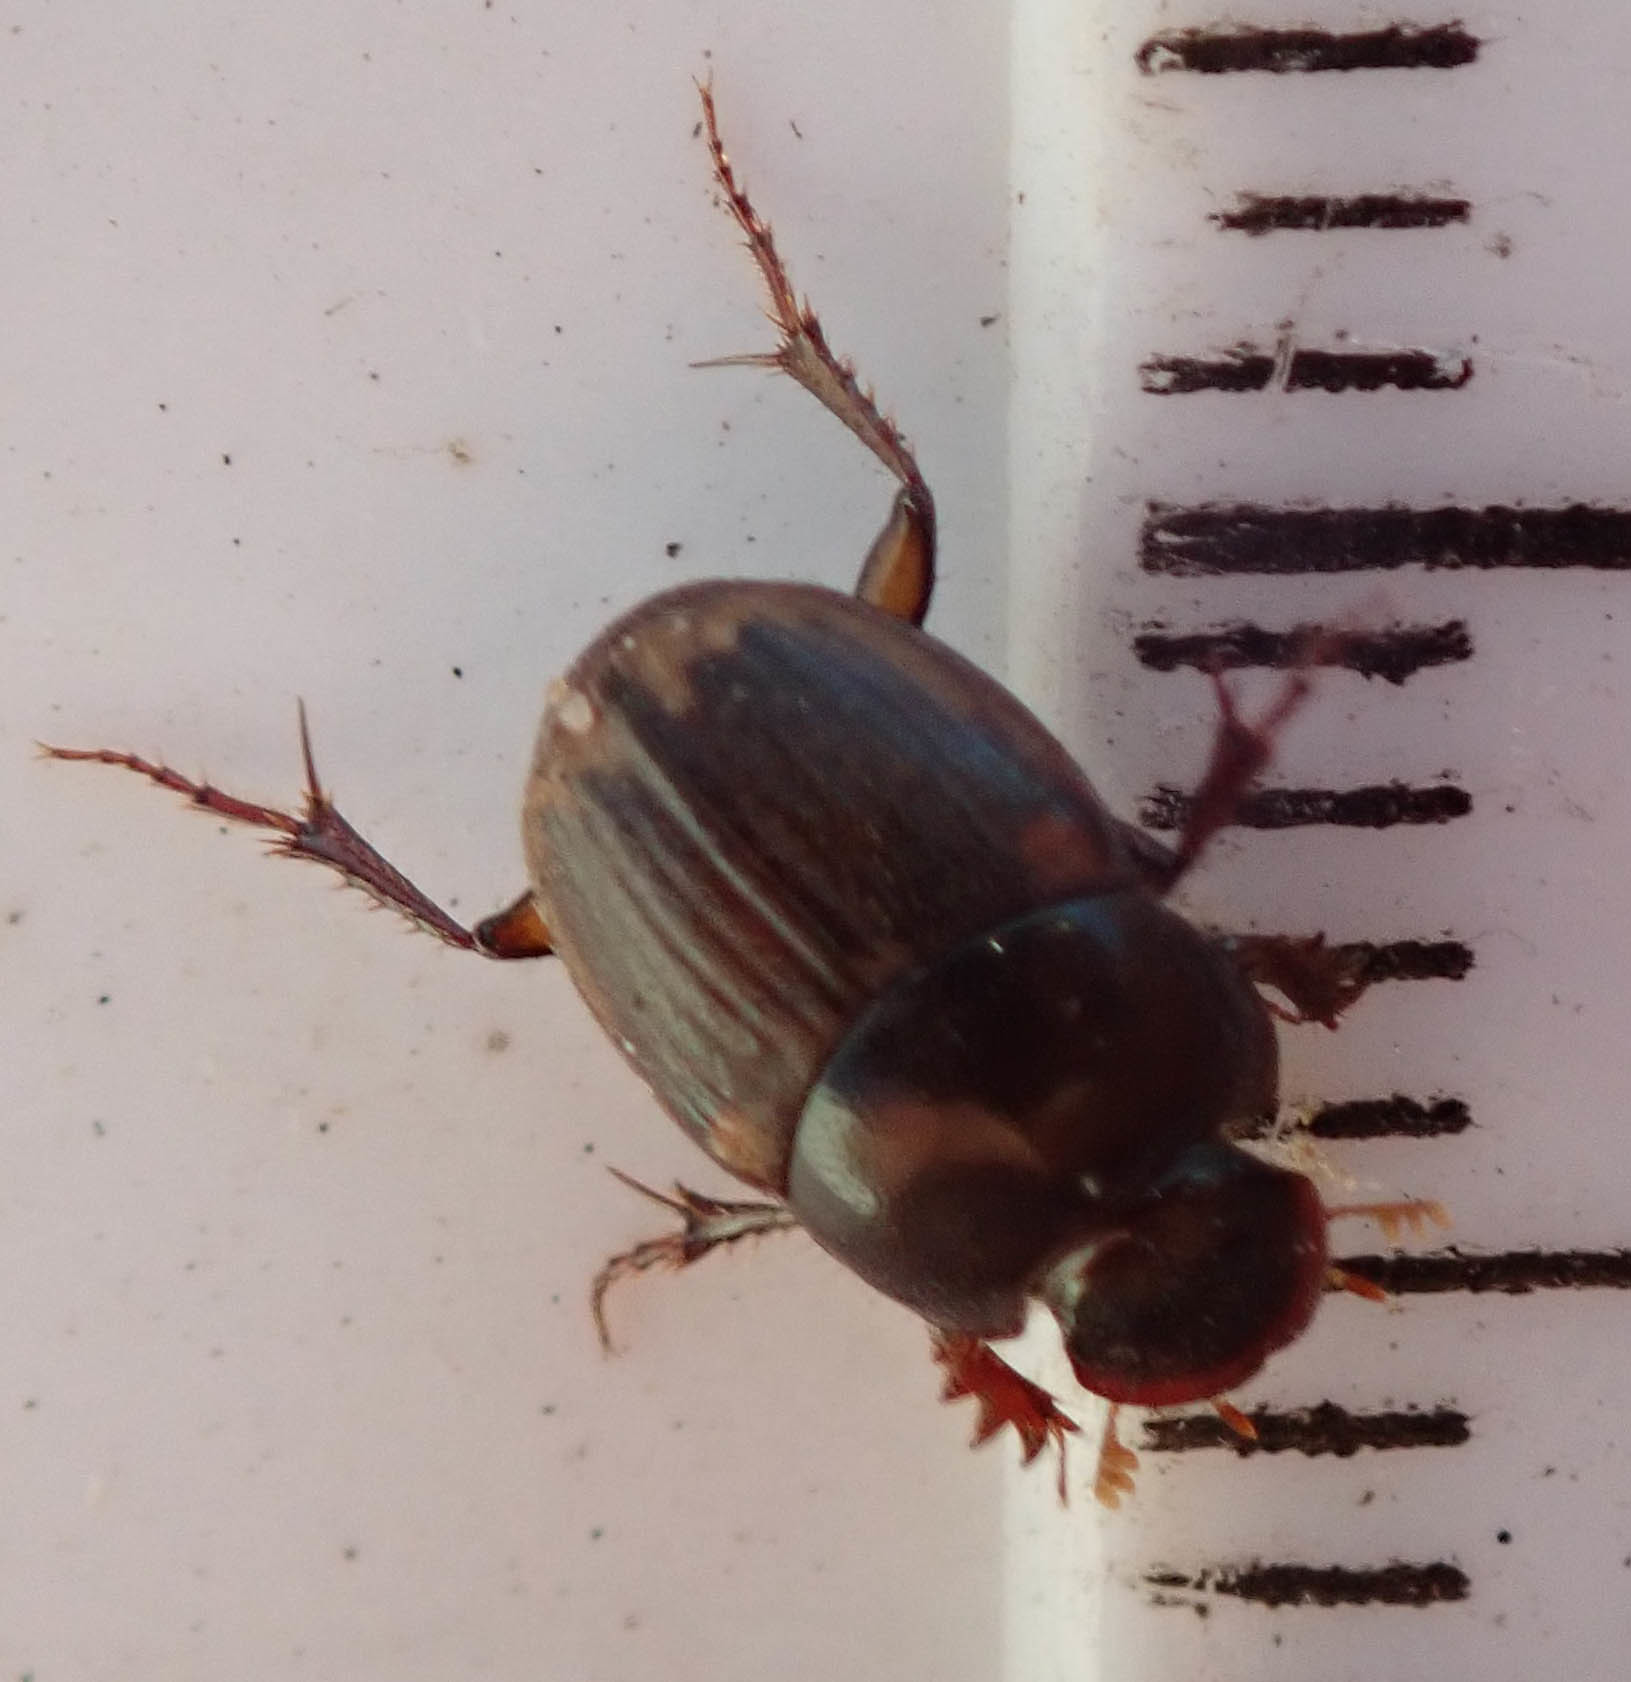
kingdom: Animalia
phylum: Arthropoda
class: Insecta
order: Coleoptera
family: Scarabaeidae
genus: Onthophagus
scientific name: Onthophagus vinctus
